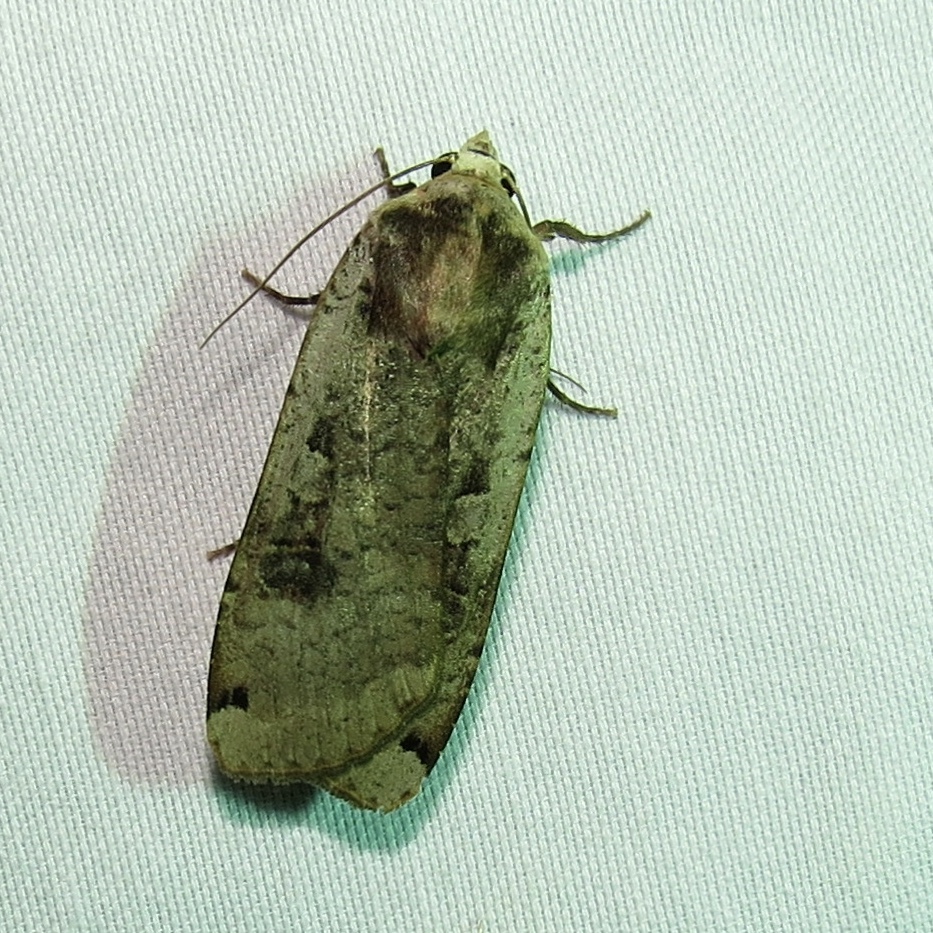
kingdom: Animalia
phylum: Arthropoda
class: Insecta
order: Lepidoptera
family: Noctuidae
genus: Noctua
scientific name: Noctua pronuba
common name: Large yellow underwing
